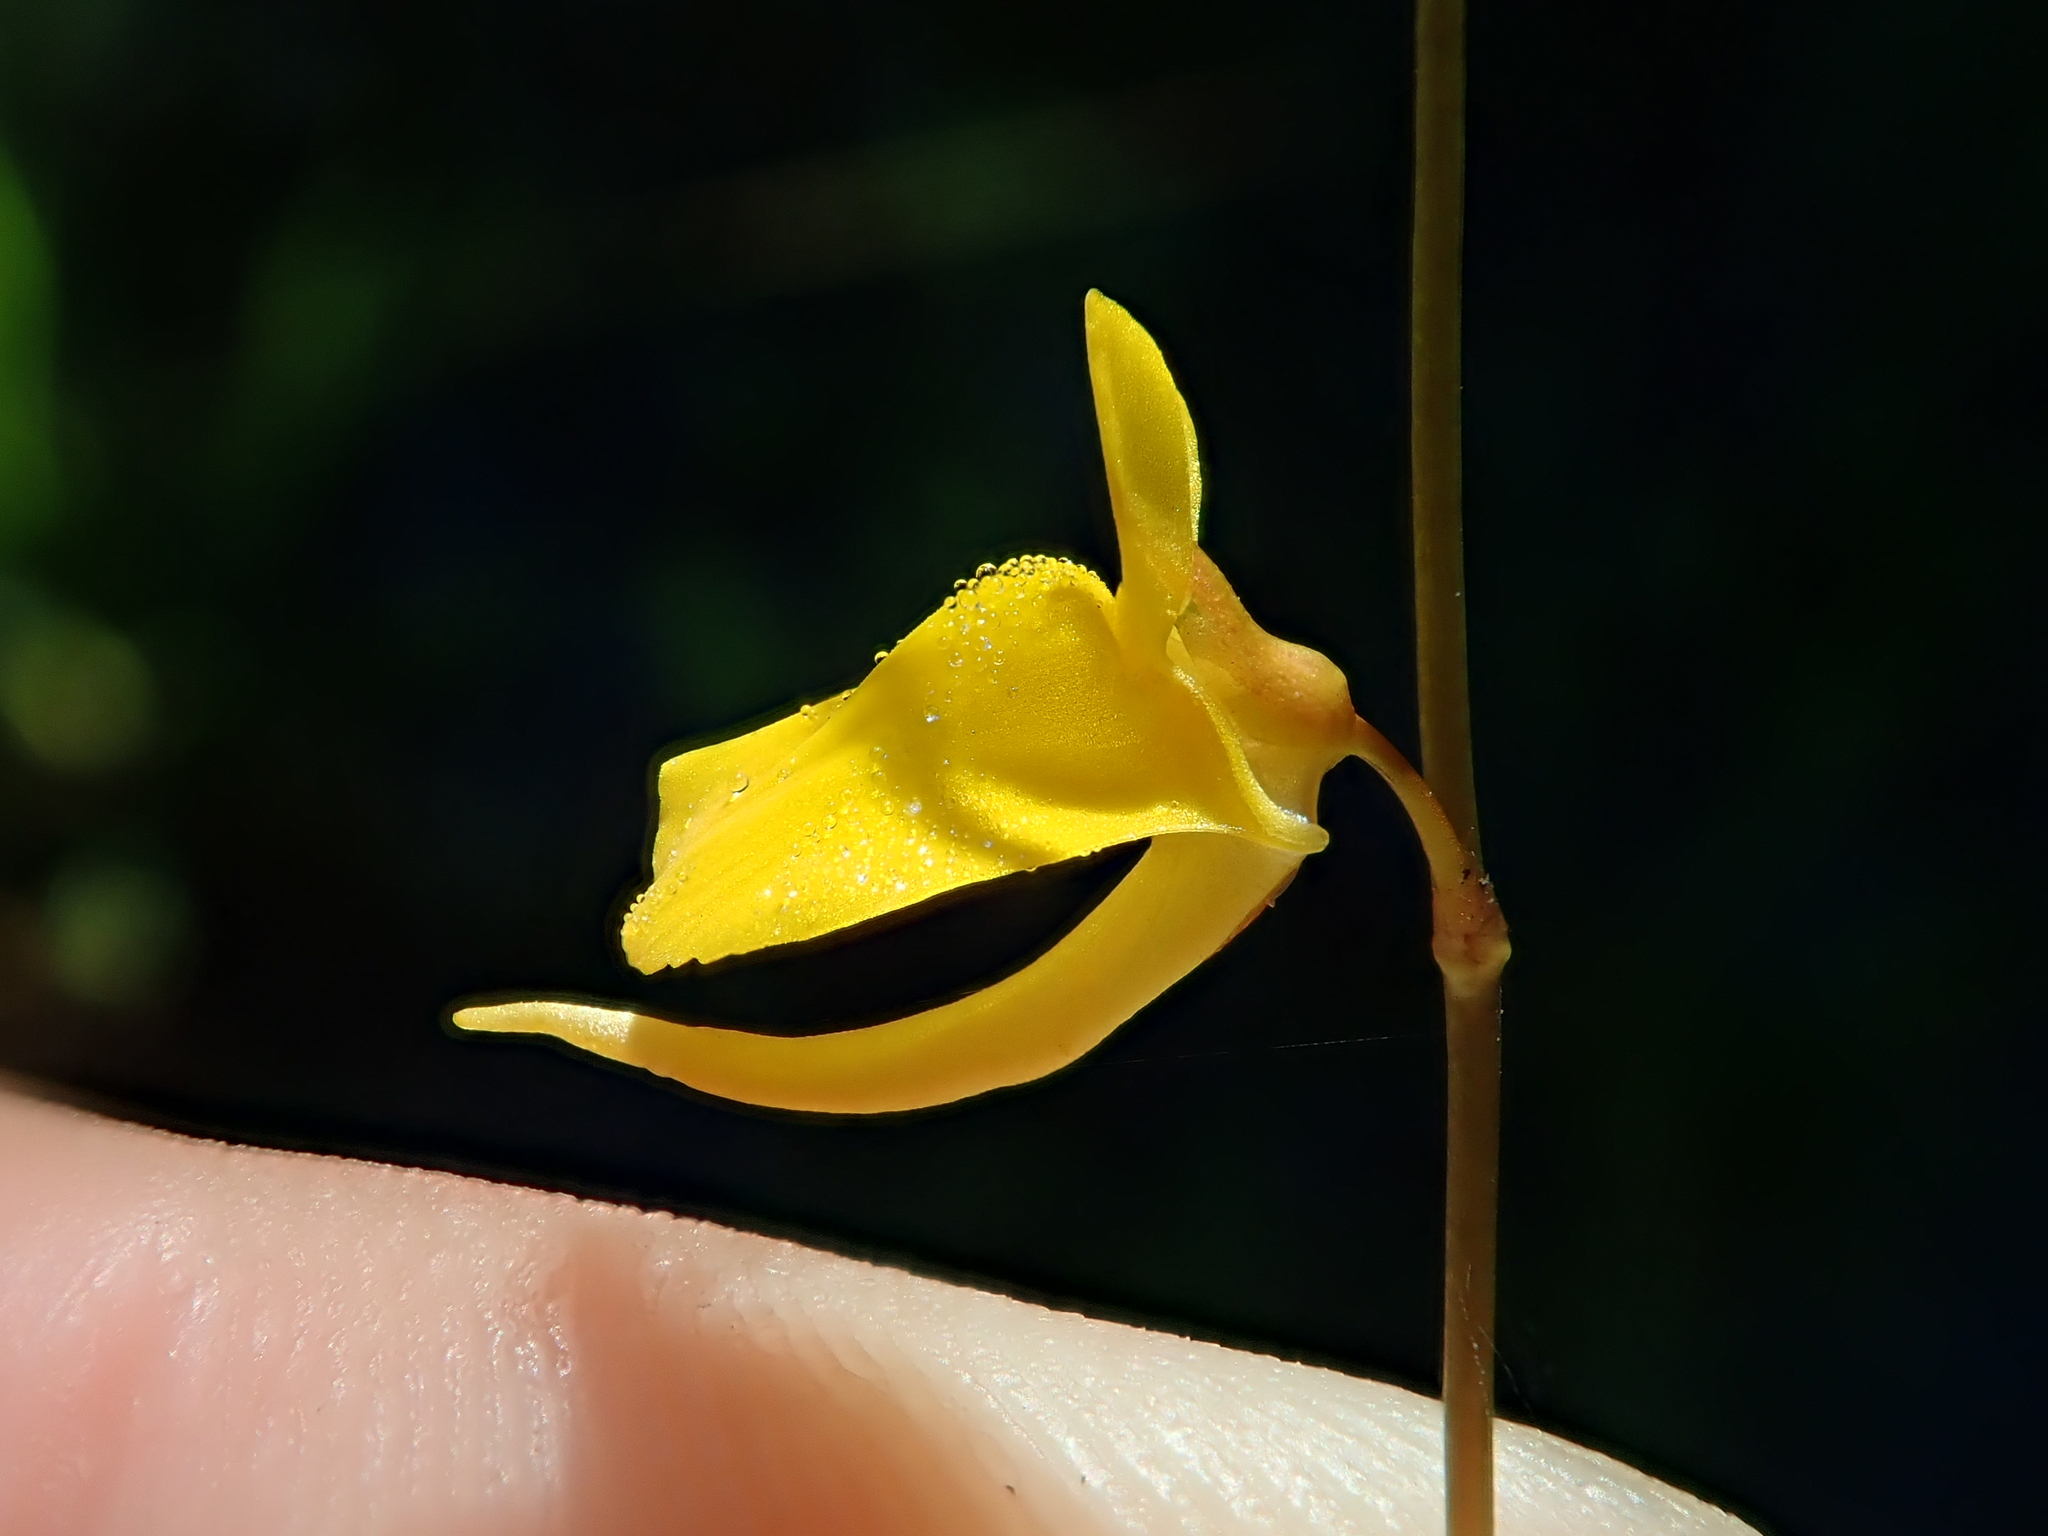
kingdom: Plantae
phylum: Tracheophyta
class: Magnoliopsida
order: Lamiales
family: Lentibulariaceae
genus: Utricularia
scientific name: Utricularia laxa
